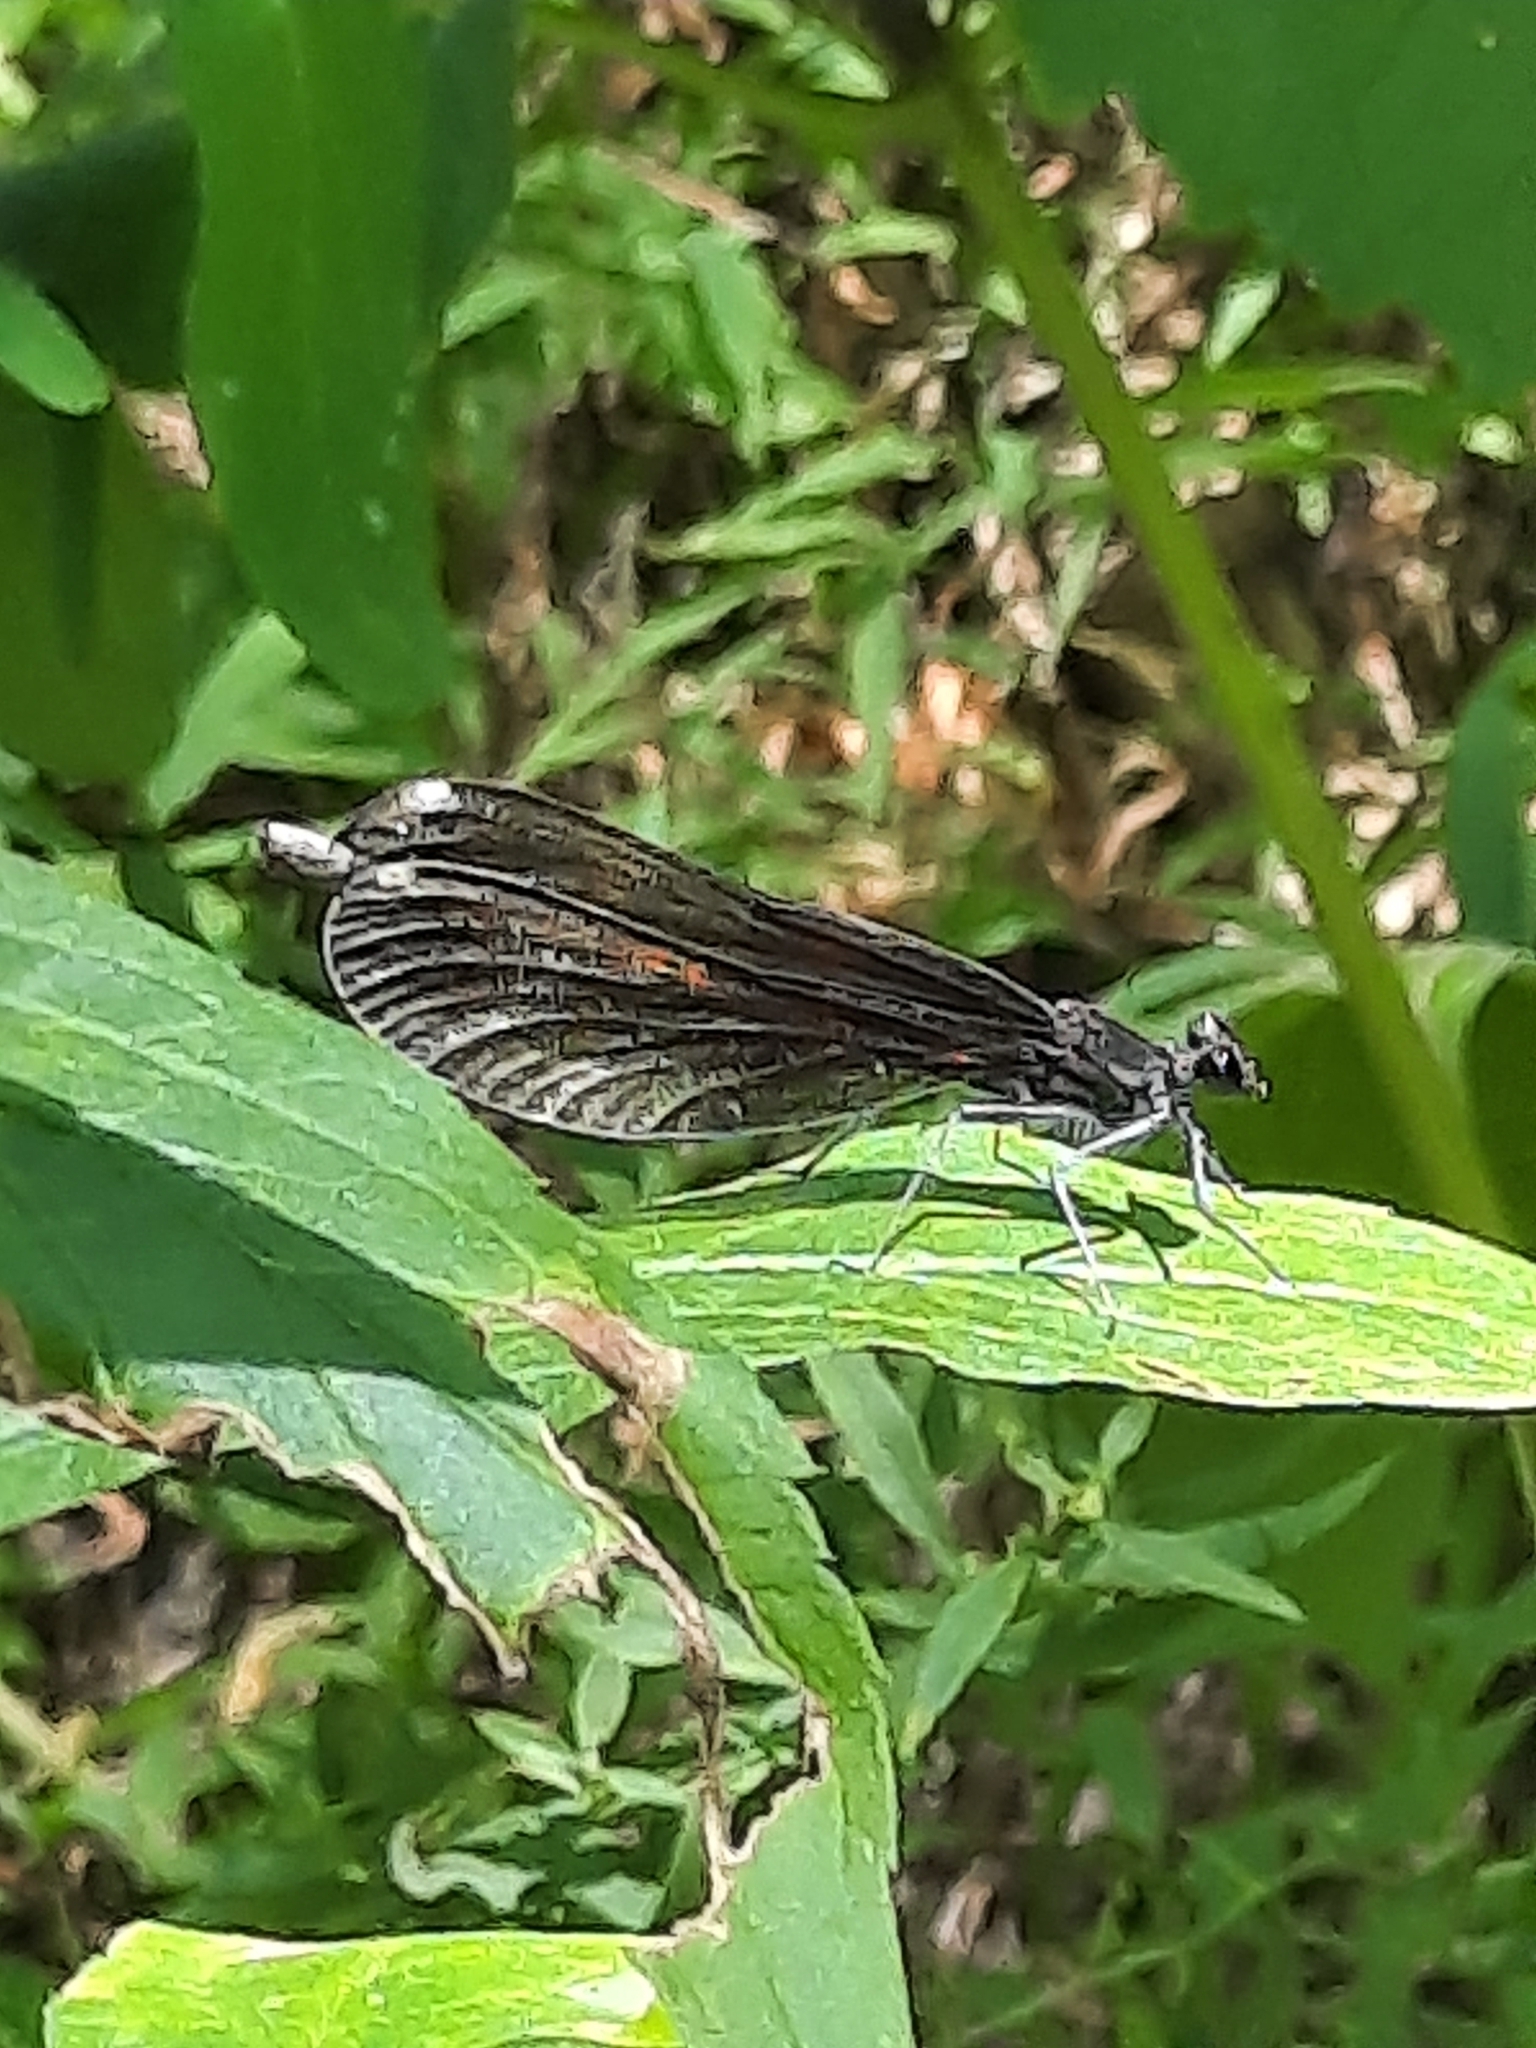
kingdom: Animalia
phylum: Arthropoda
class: Insecta
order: Odonata
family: Calopterygidae
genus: Calopteryx
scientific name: Calopteryx maculata
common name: Ebony jewelwing
